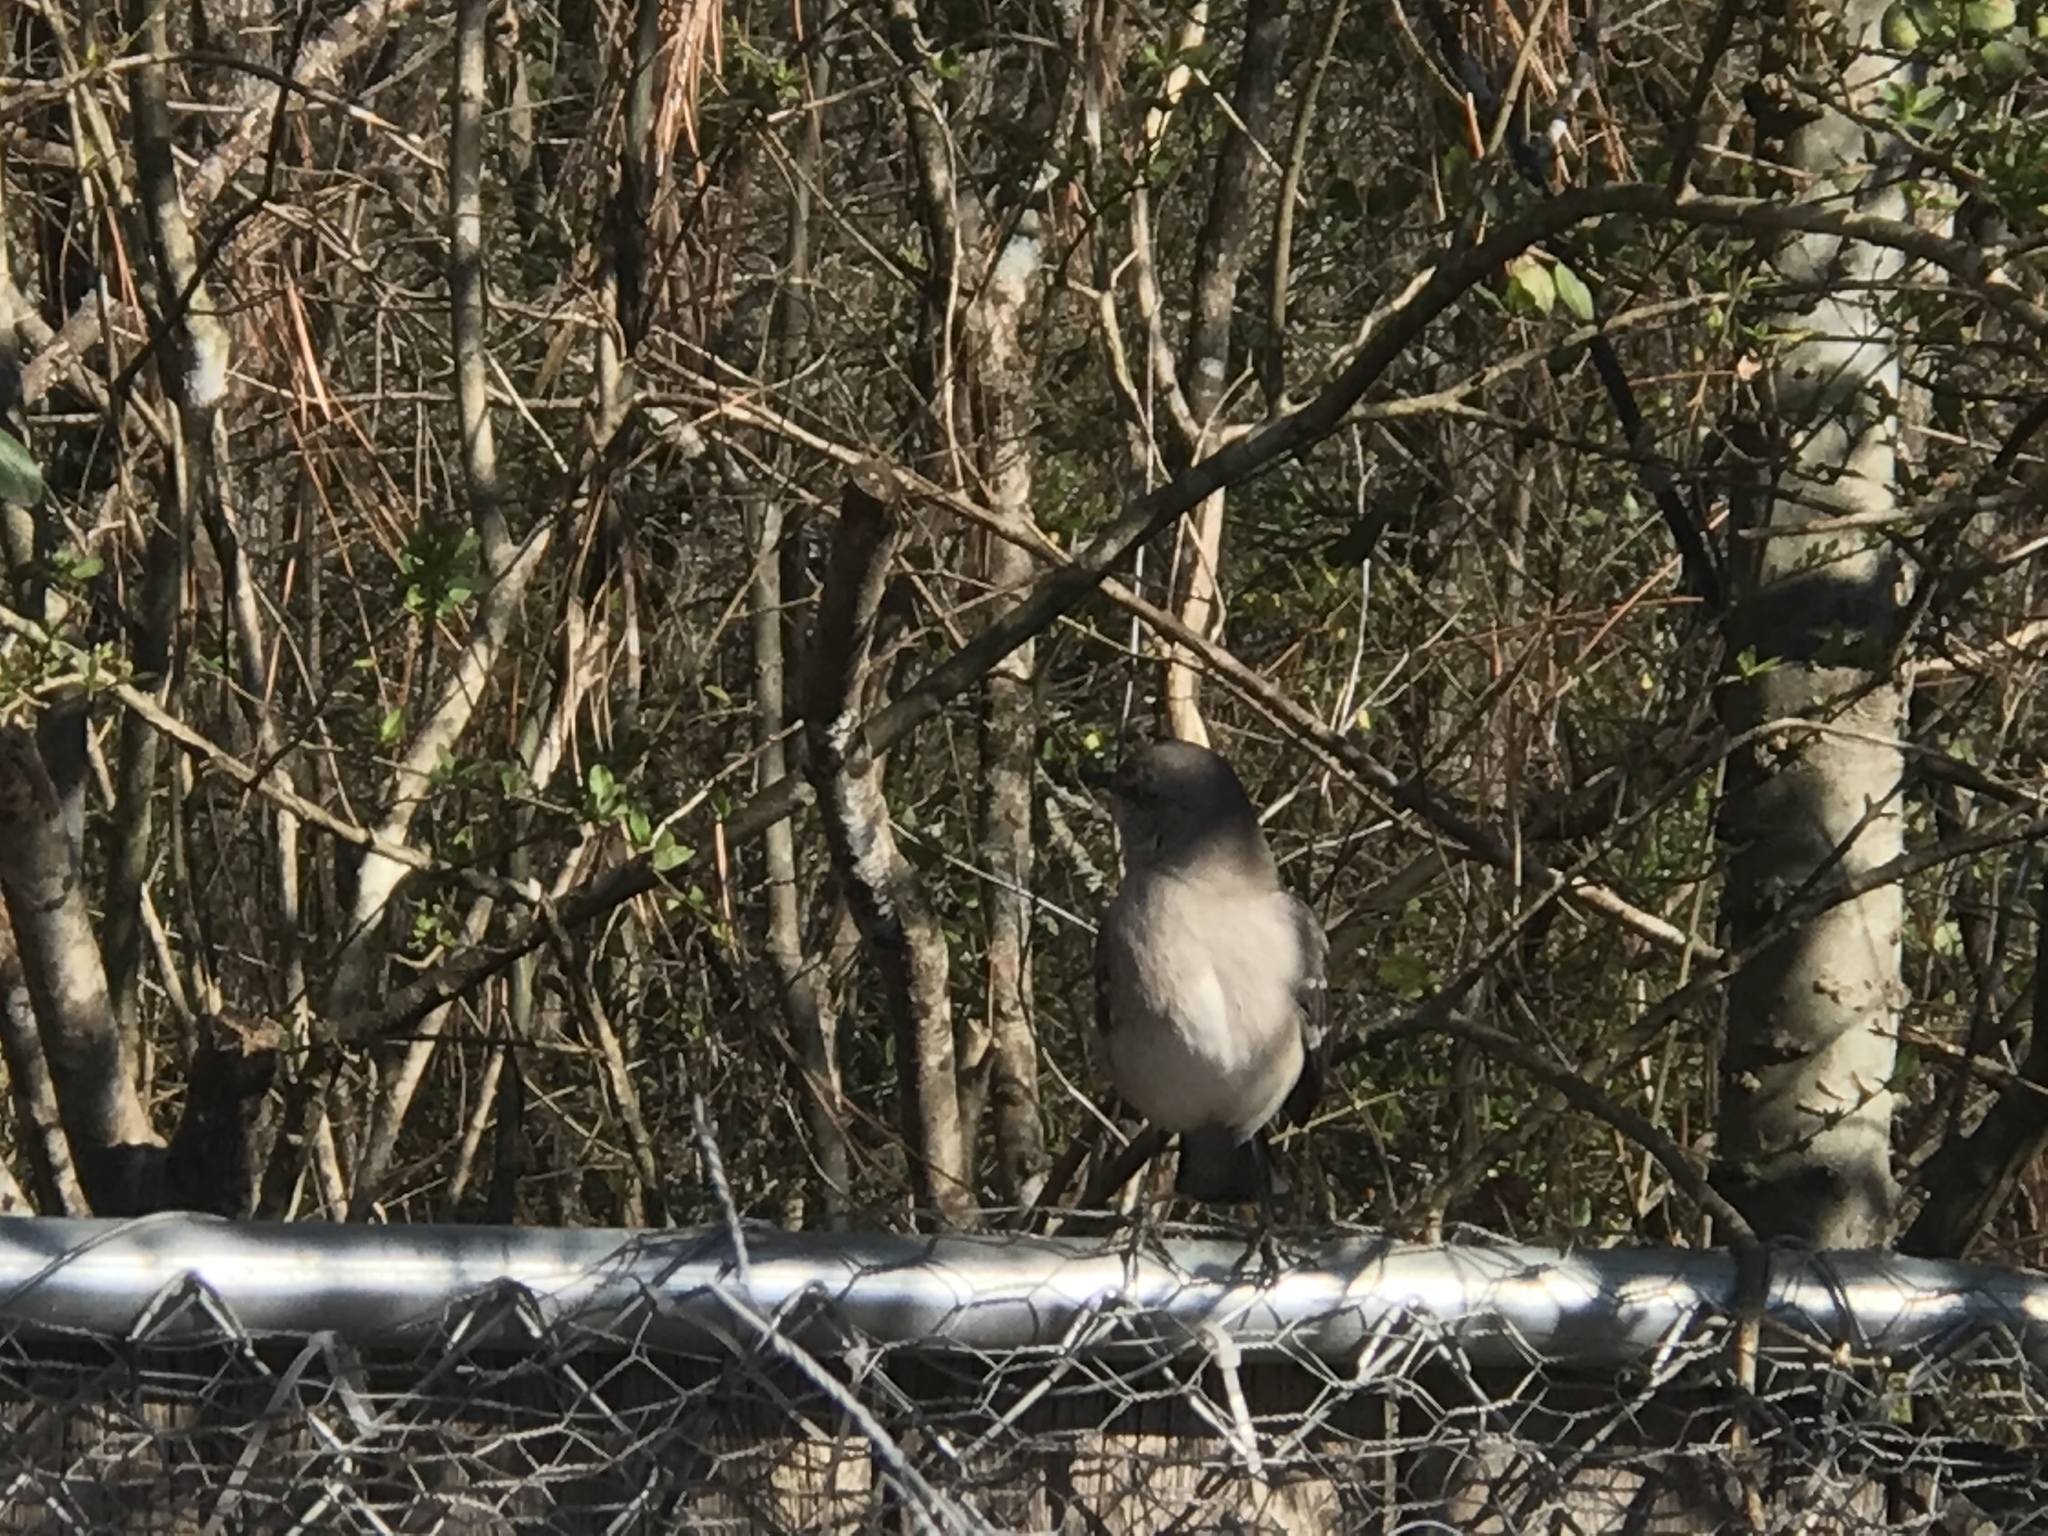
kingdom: Animalia
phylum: Chordata
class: Aves
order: Passeriformes
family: Mimidae
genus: Mimus
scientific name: Mimus polyglottos
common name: Northern mockingbird
